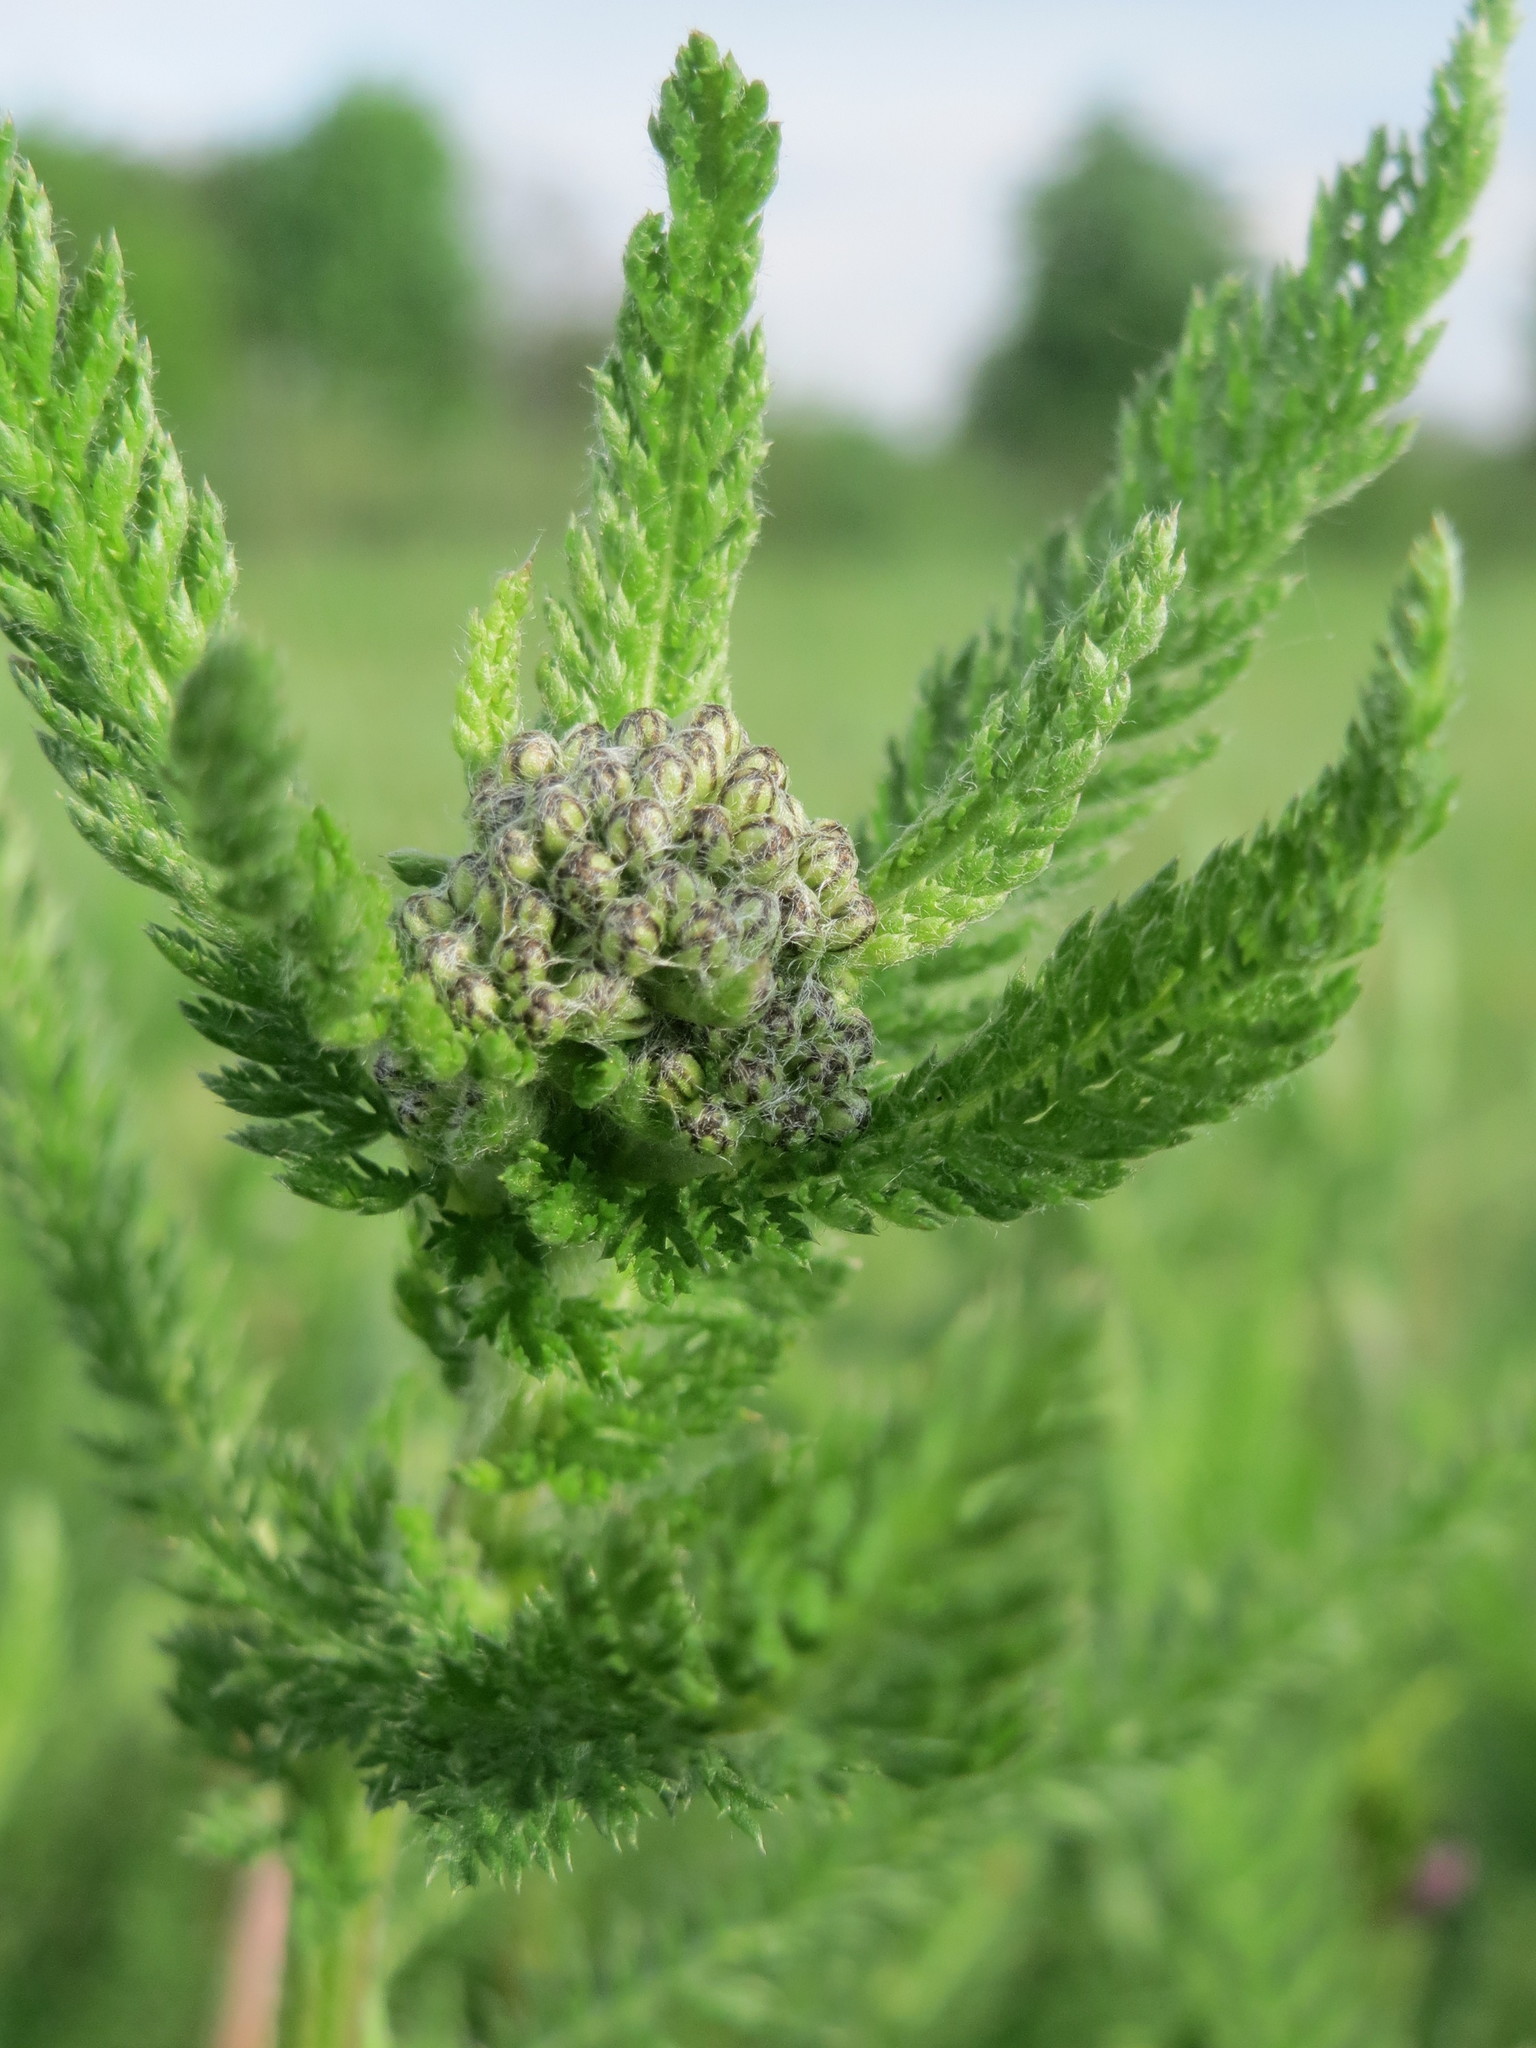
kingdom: Plantae
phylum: Tracheophyta
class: Magnoliopsida
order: Asterales
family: Asteraceae
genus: Achillea
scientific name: Achillea millefolium
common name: Yarrow
